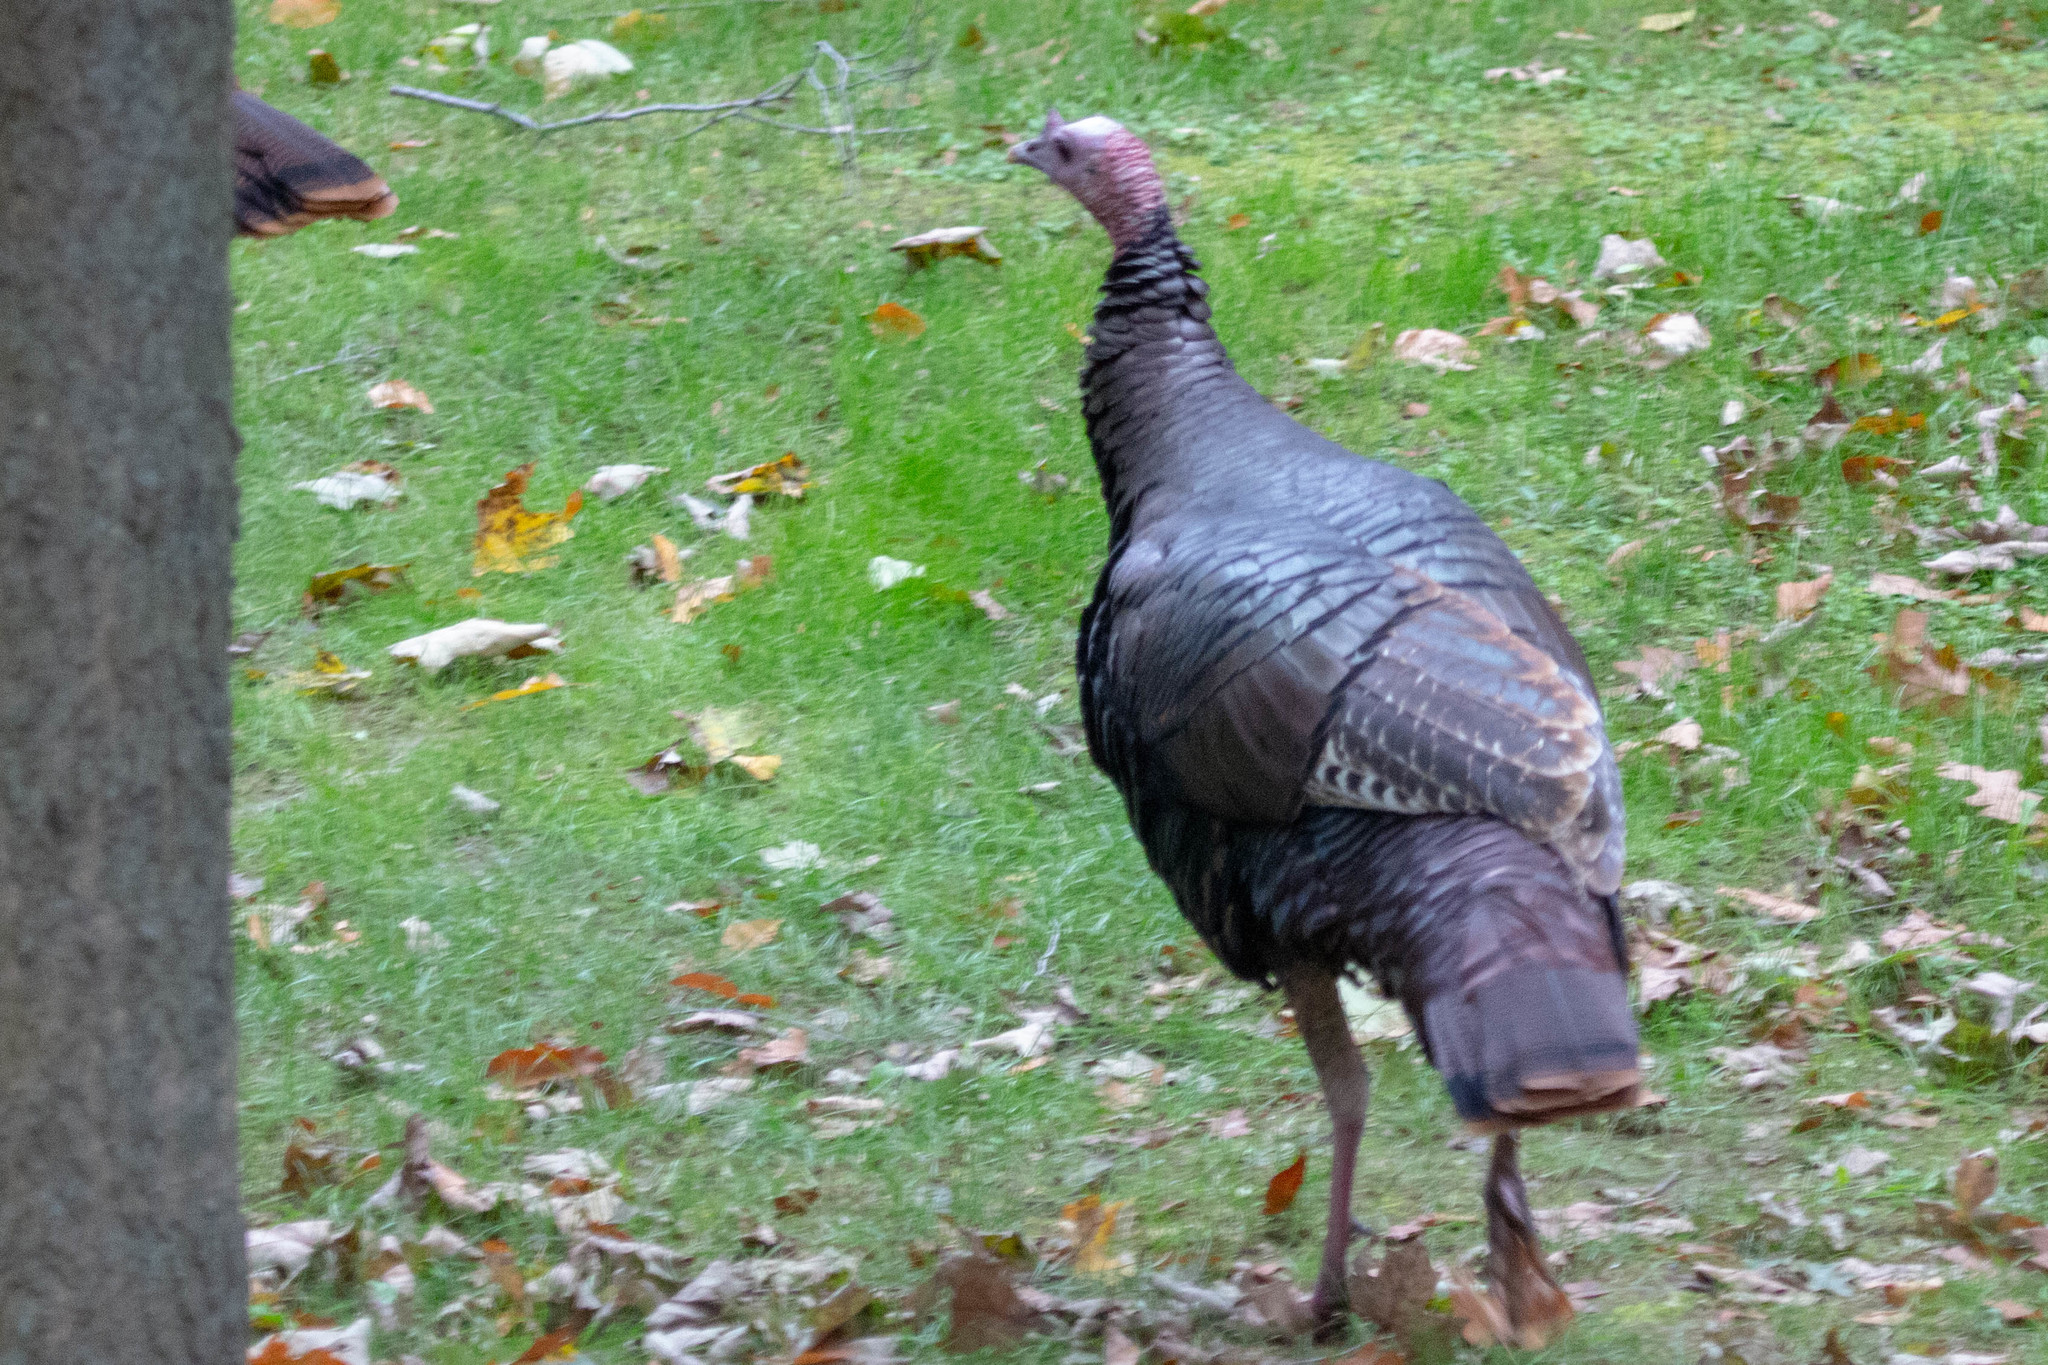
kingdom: Animalia
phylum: Chordata
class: Aves
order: Galliformes
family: Phasianidae
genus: Meleagris
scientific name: Meleagris gallopavo
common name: Wild turkey
